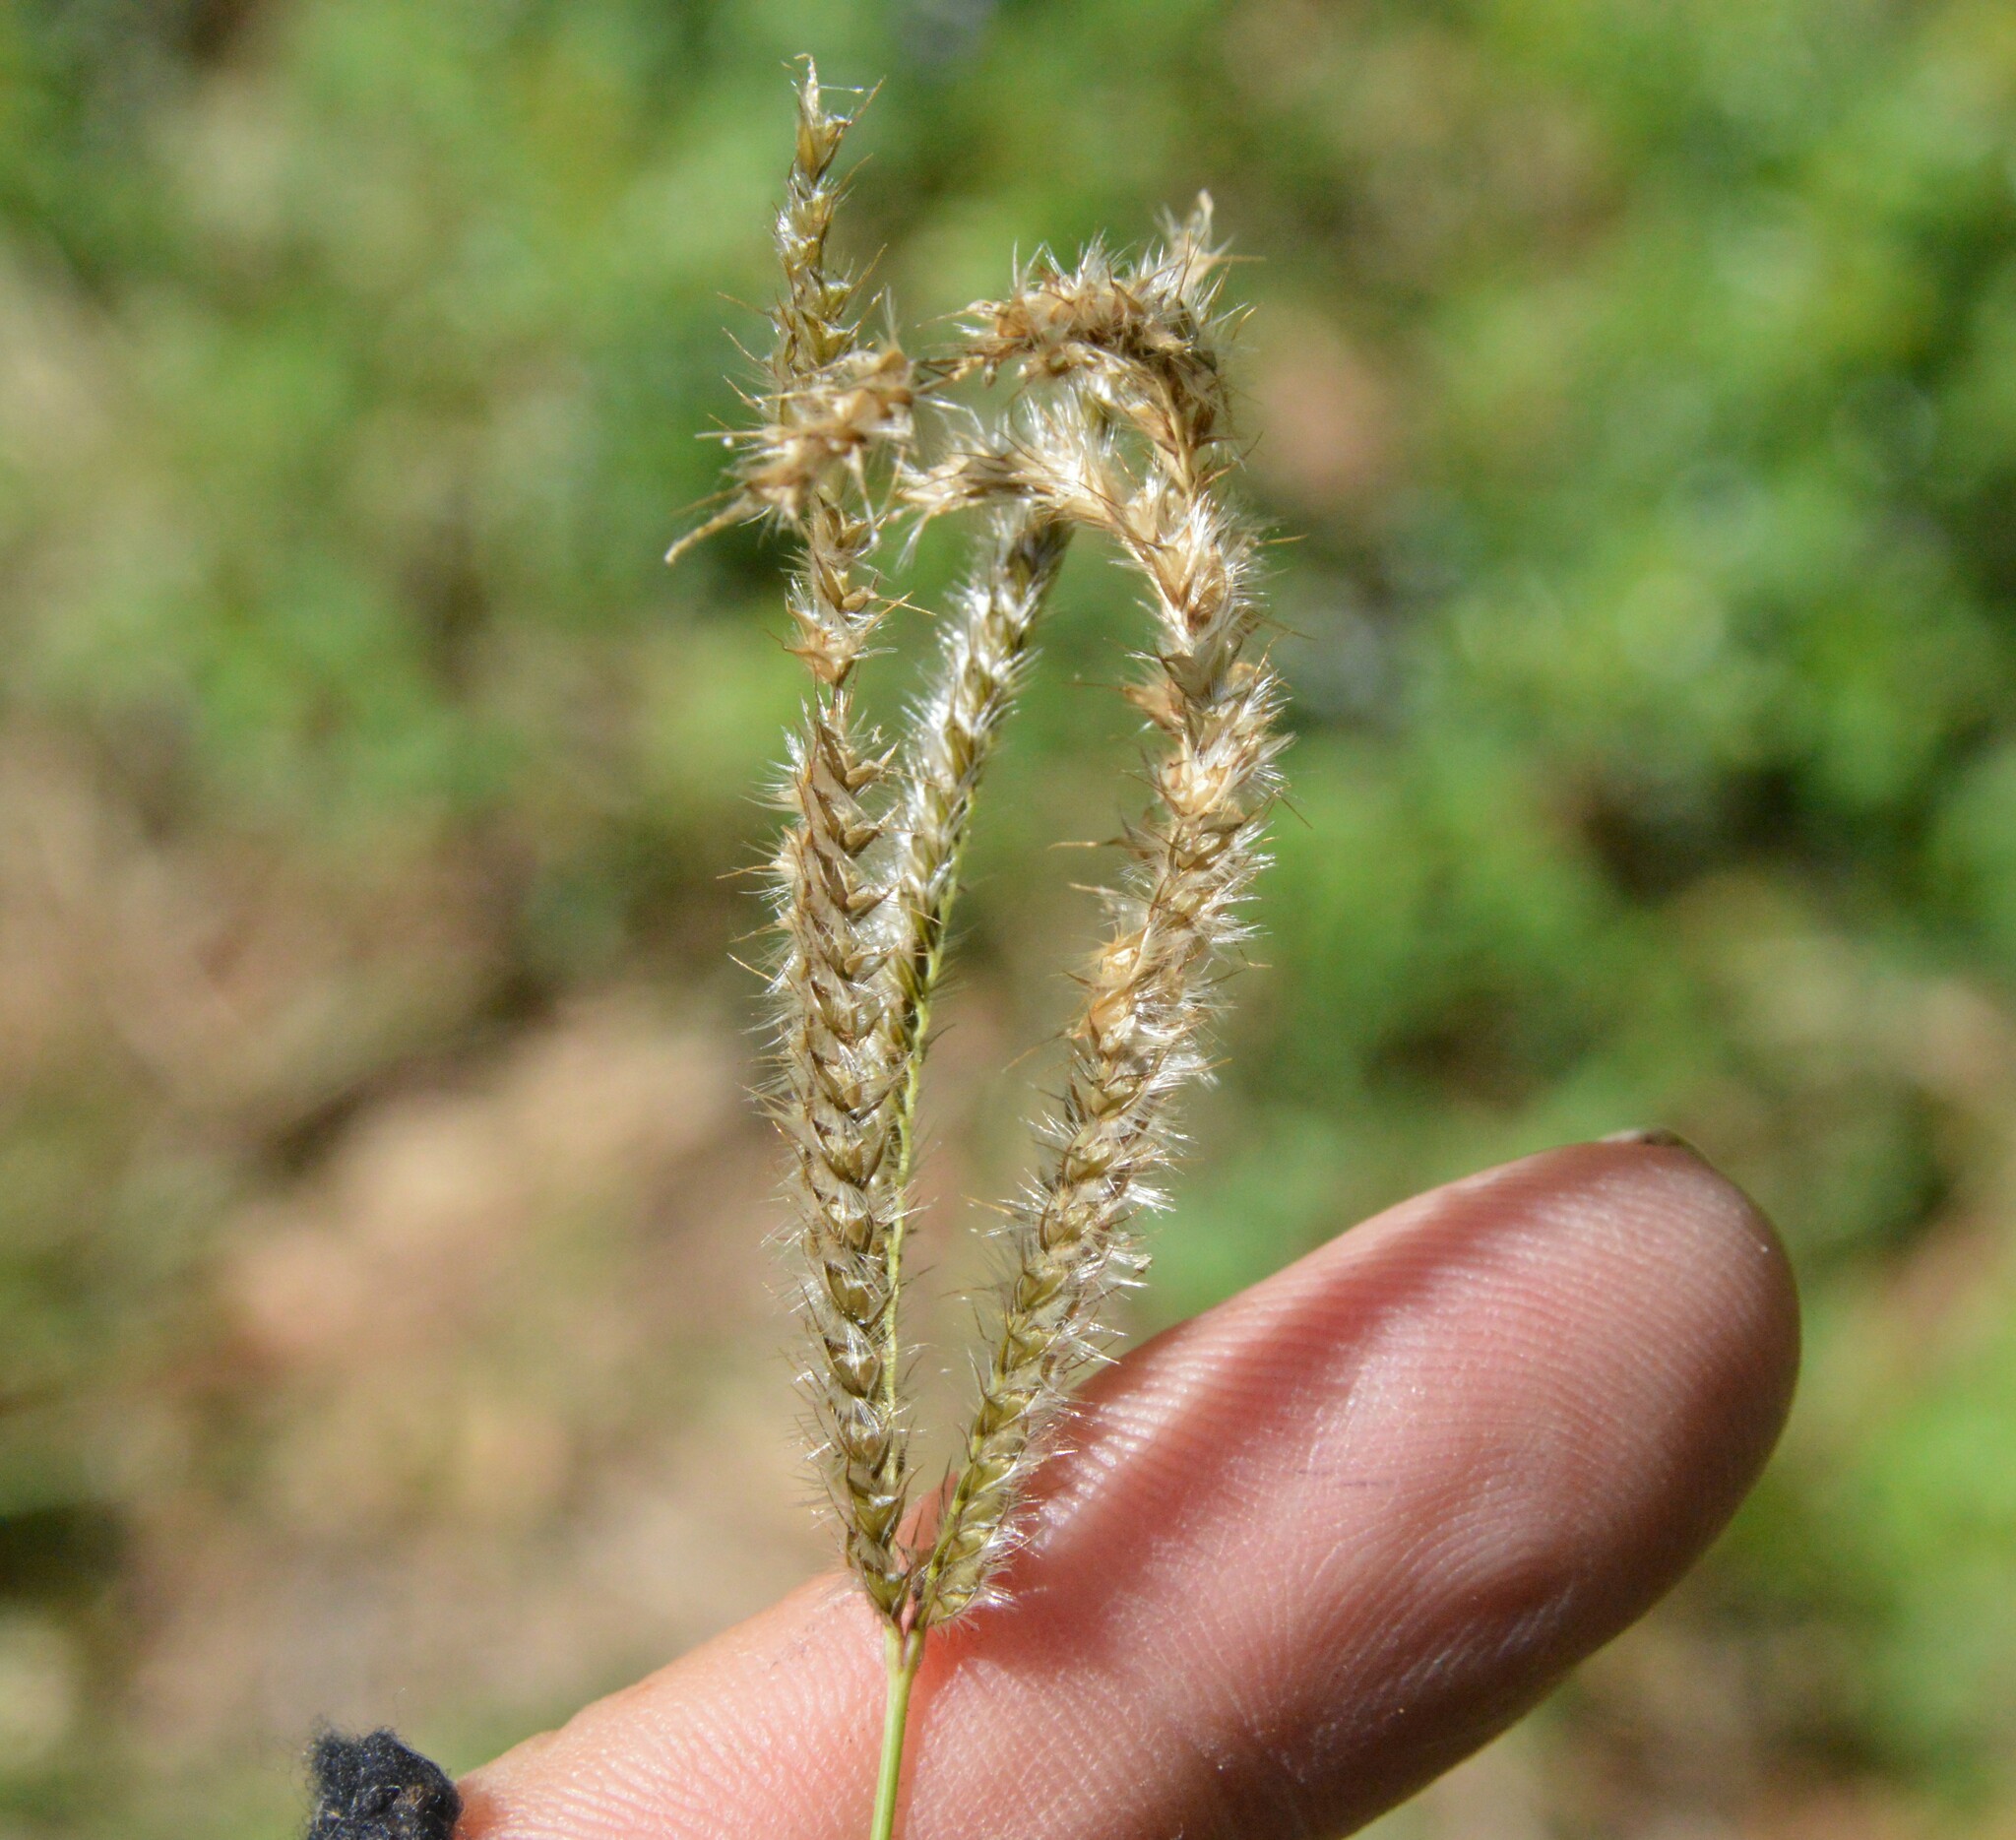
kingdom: Plantae
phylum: Tracheophyta
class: Liliopsida
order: Poales
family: Poaceae
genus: Stapfochloa
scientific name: Stapfochloa canterae
